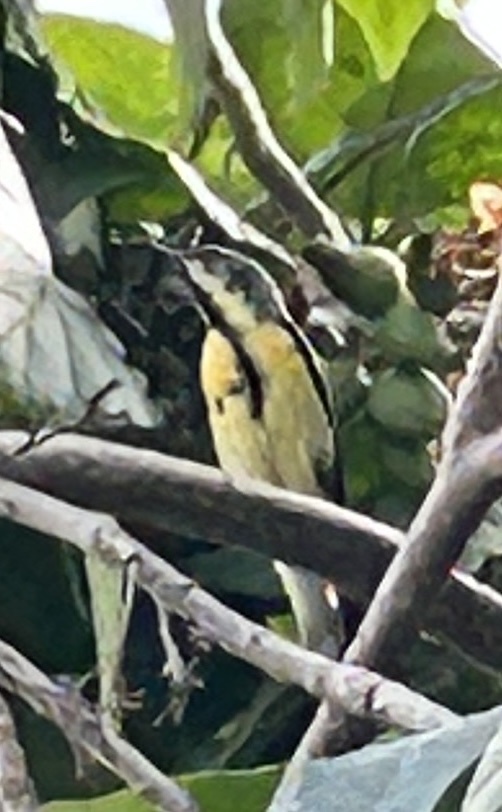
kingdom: Animalia
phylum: Chordata
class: Aves
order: Passeriformes
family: Nectariniidae
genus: Cinnyris
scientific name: Cinnyris asiaticus
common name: Purple sunbird
